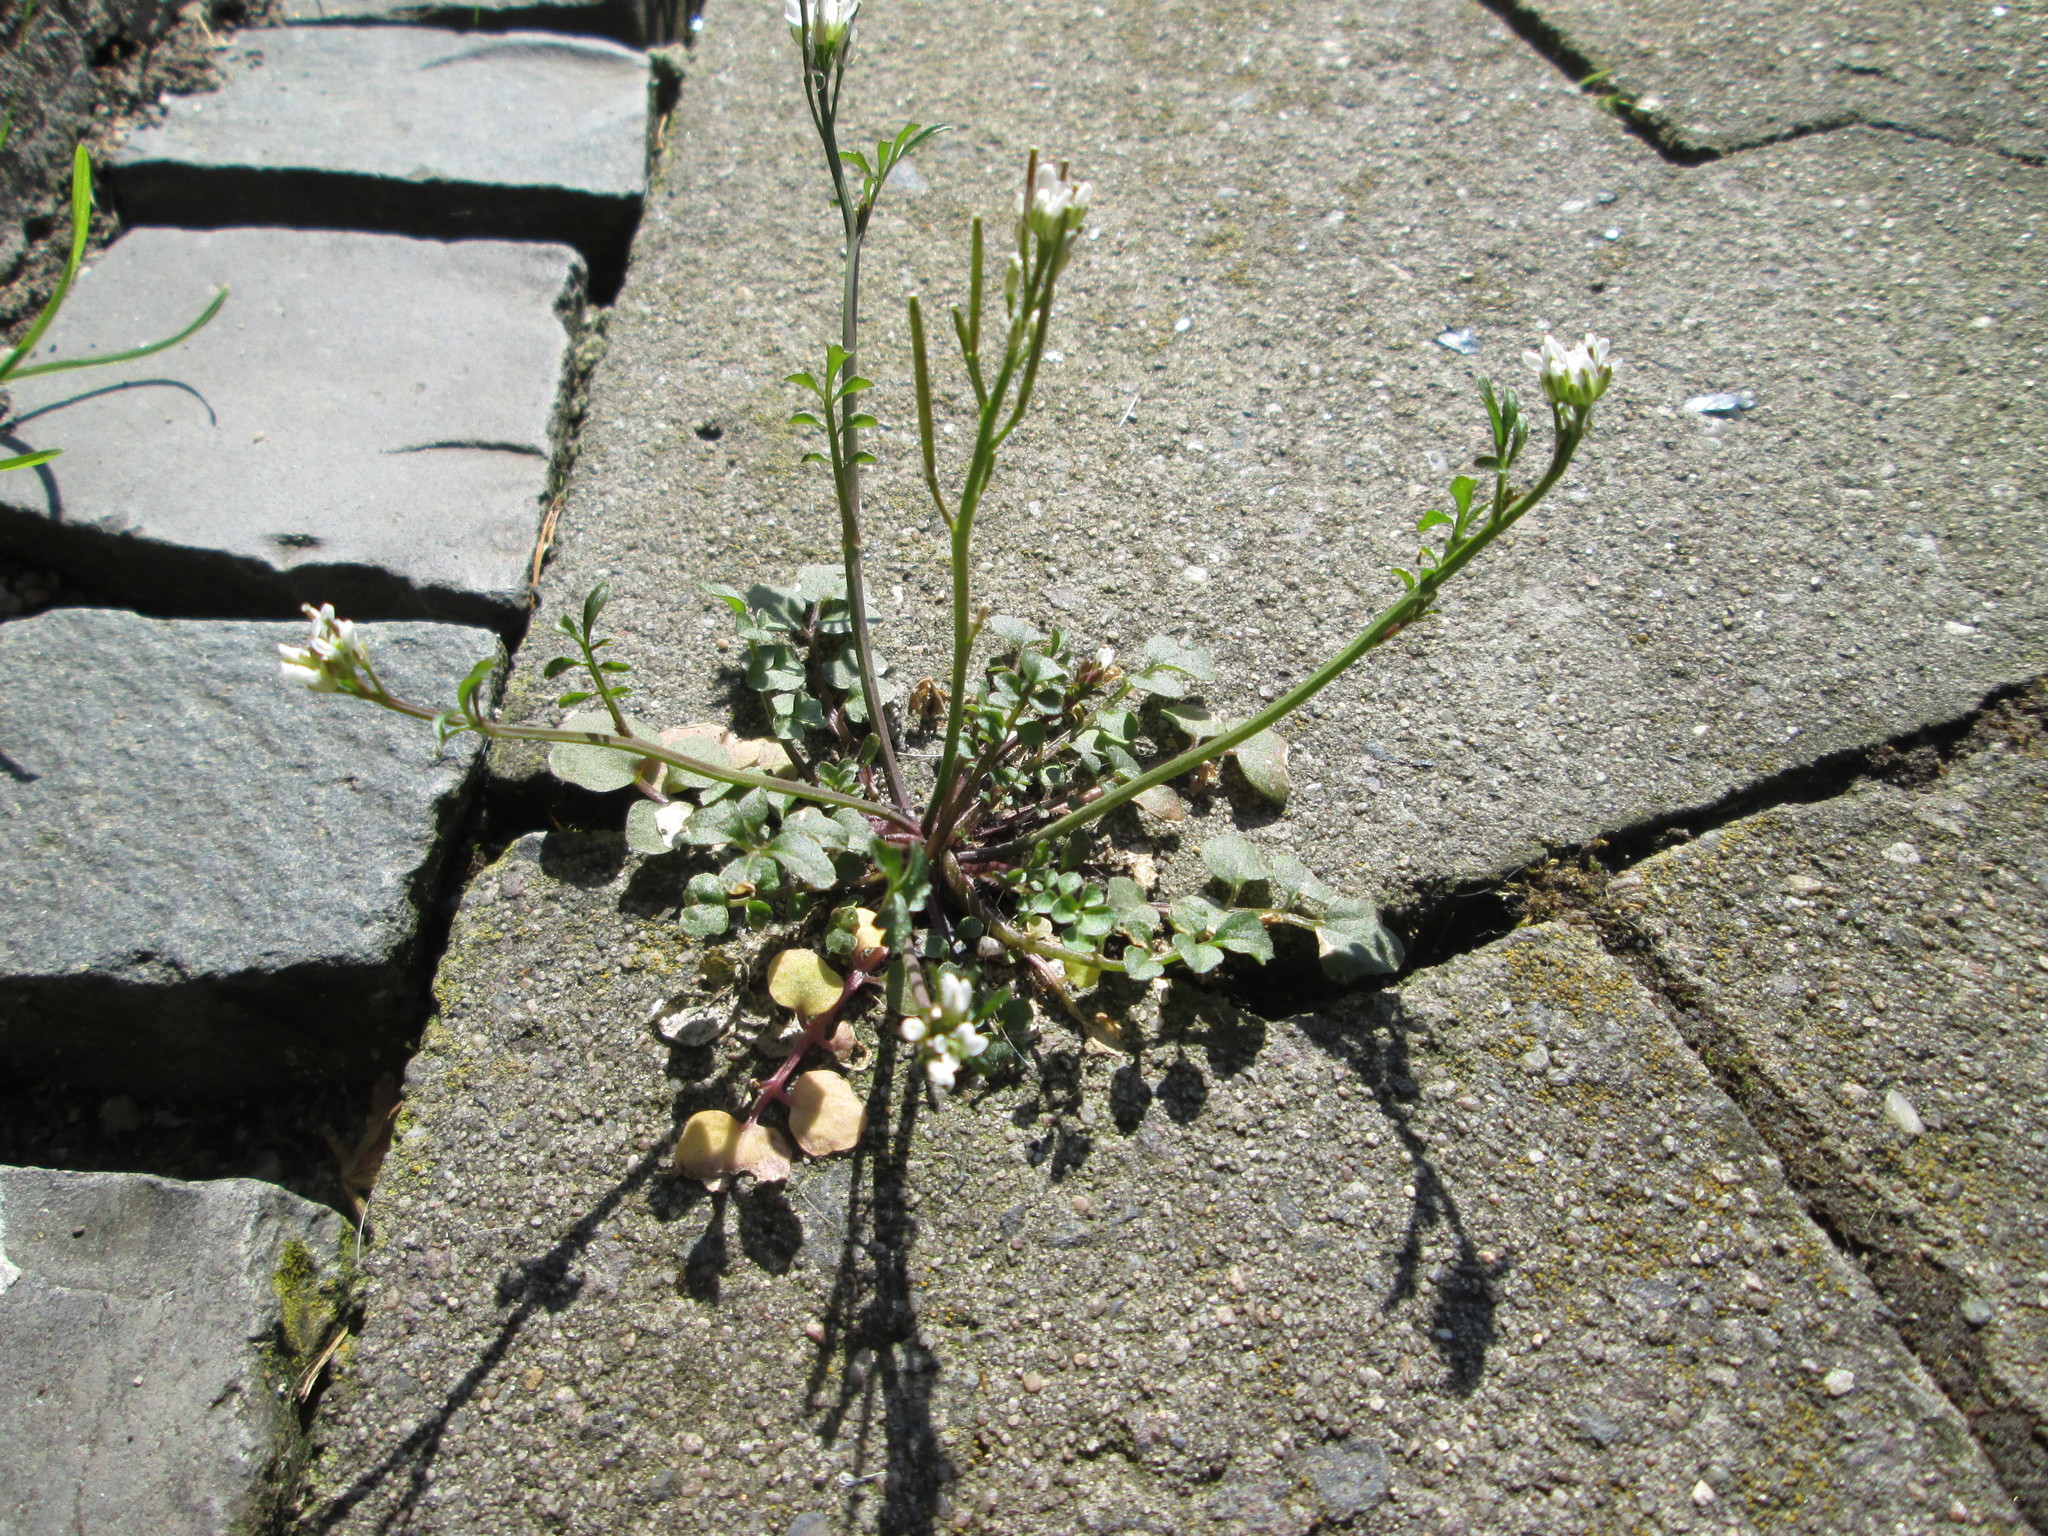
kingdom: Plantae
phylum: Tracheophyta
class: Magnoliopsida
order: Brassicales
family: Brassicaceae
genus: Cardamine
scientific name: Cardamine hirsuta
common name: Hairy bittercress
